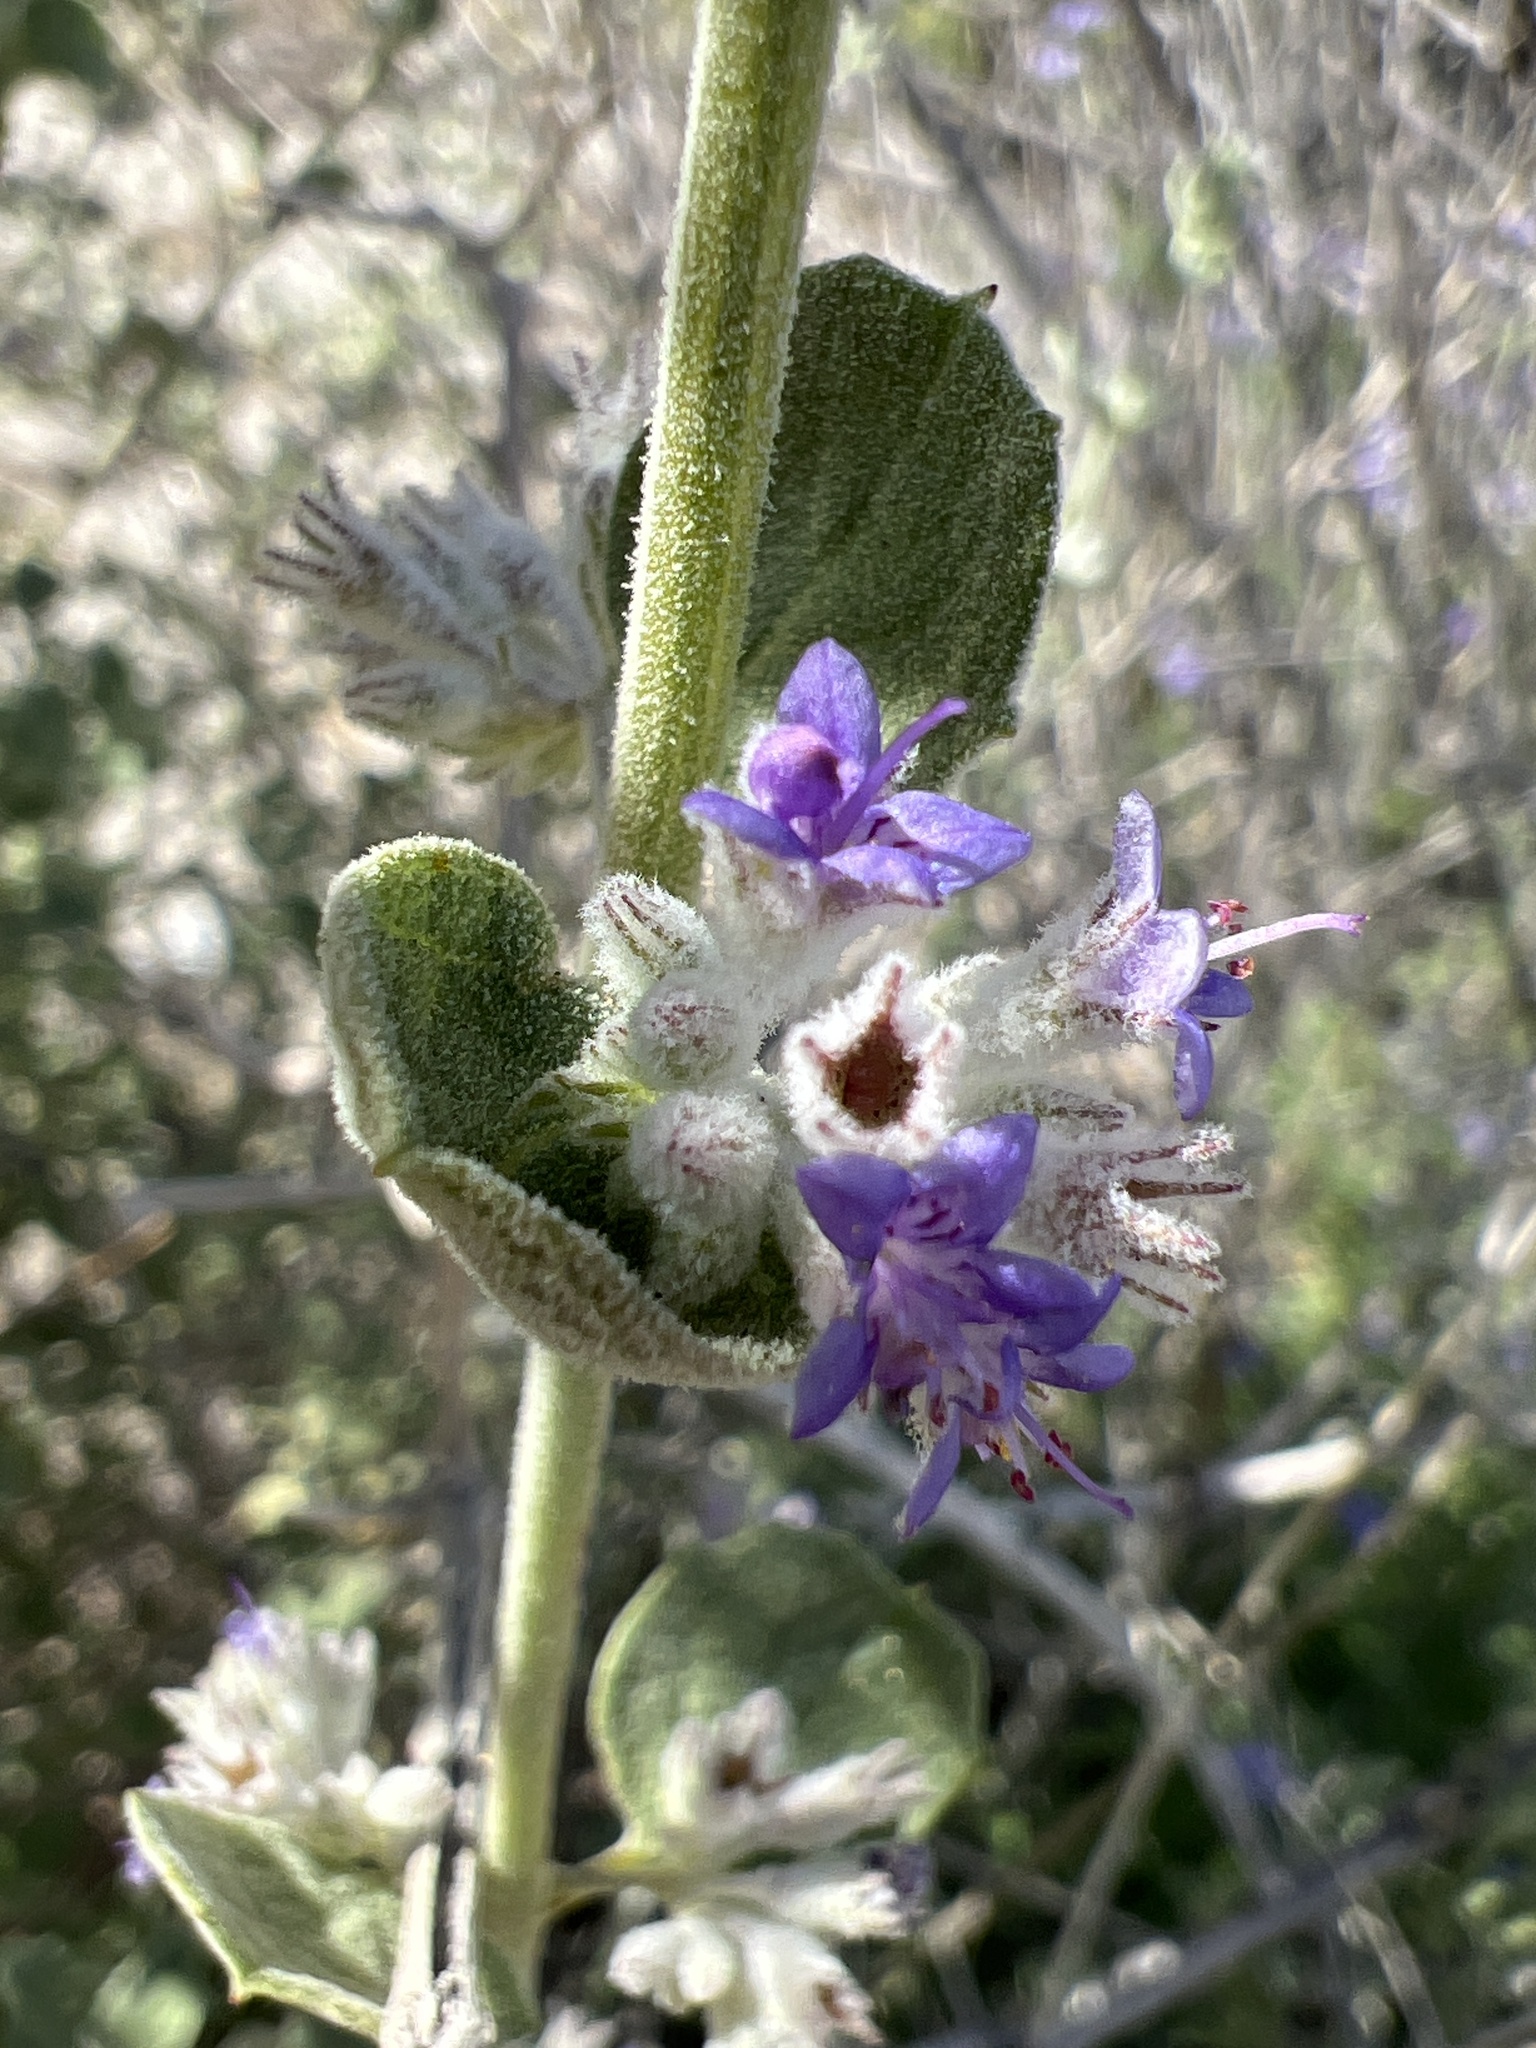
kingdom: Plantae
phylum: Tracheophyta
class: Magnoliopsida
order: Lamiales
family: Lamiaceae
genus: Condea
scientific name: Condea emoryi
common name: Chia
